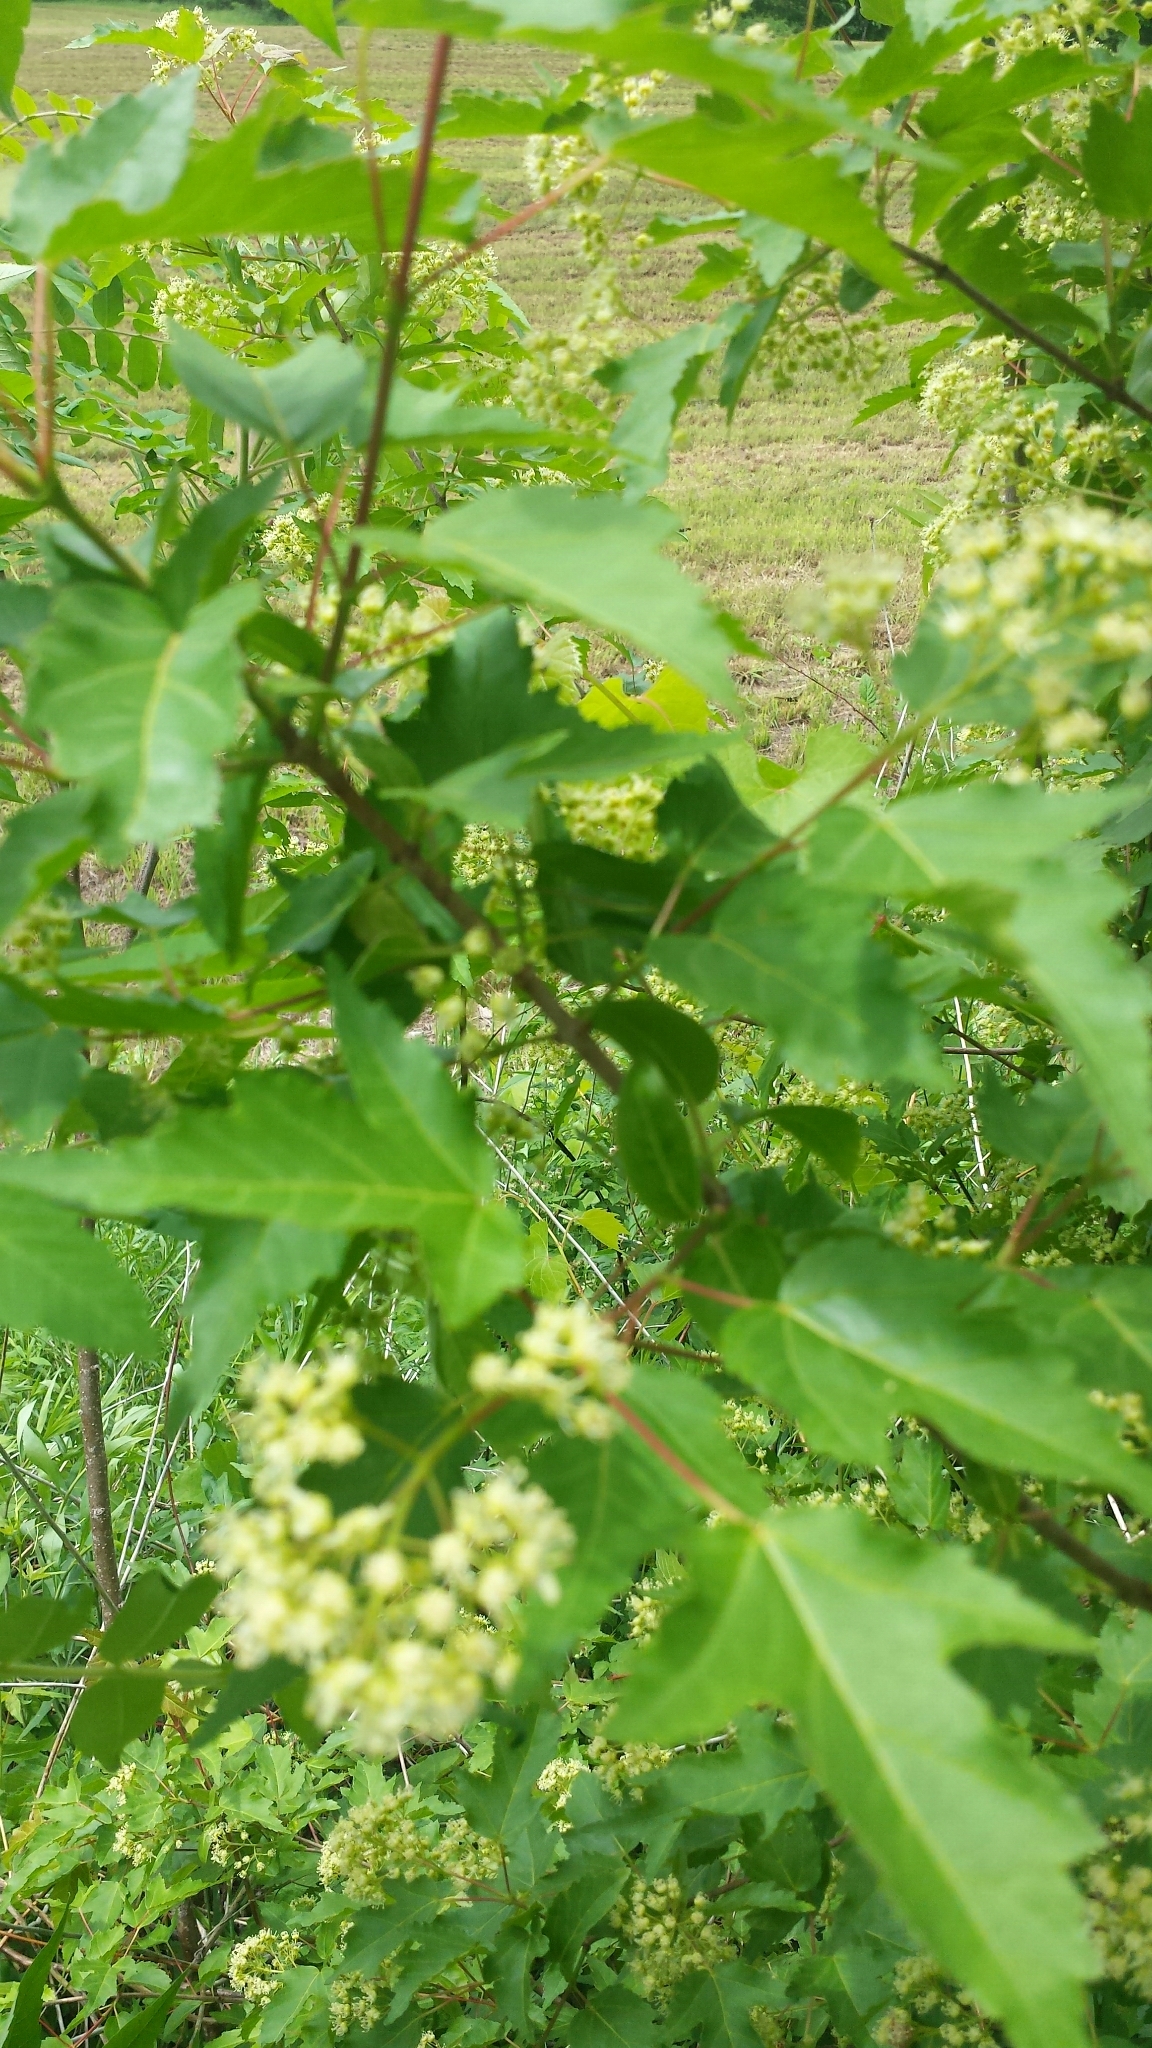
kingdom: Plantae
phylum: Tracheophyta
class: Magnoliopsida
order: Sapindales
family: Sapindaceae
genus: Acer
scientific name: Acer tataricum
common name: Tartar maple
